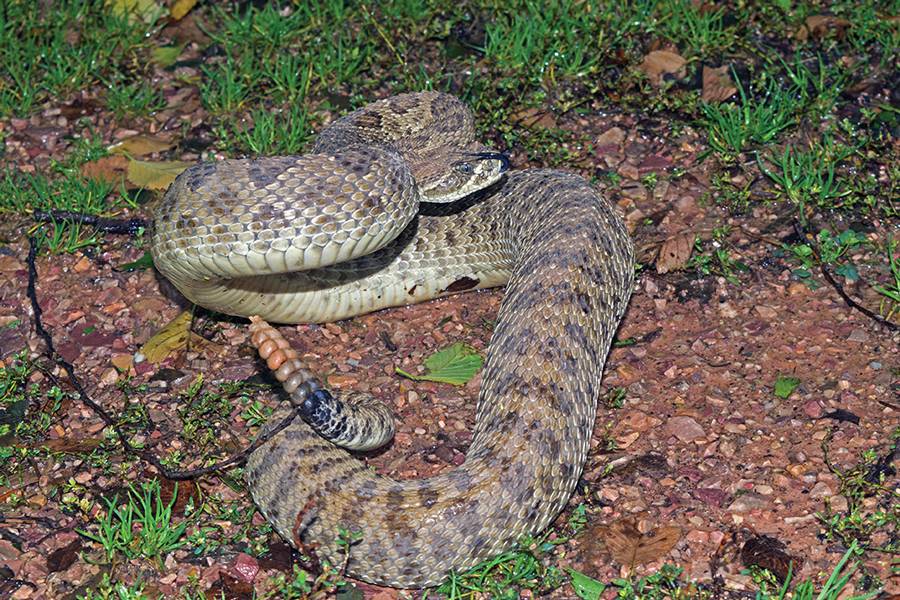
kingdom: Animalia
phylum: Chordata
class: Squamata
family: Viperidae
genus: Crotalus
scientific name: Crotalus viridis
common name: Prairie rattlesnake
